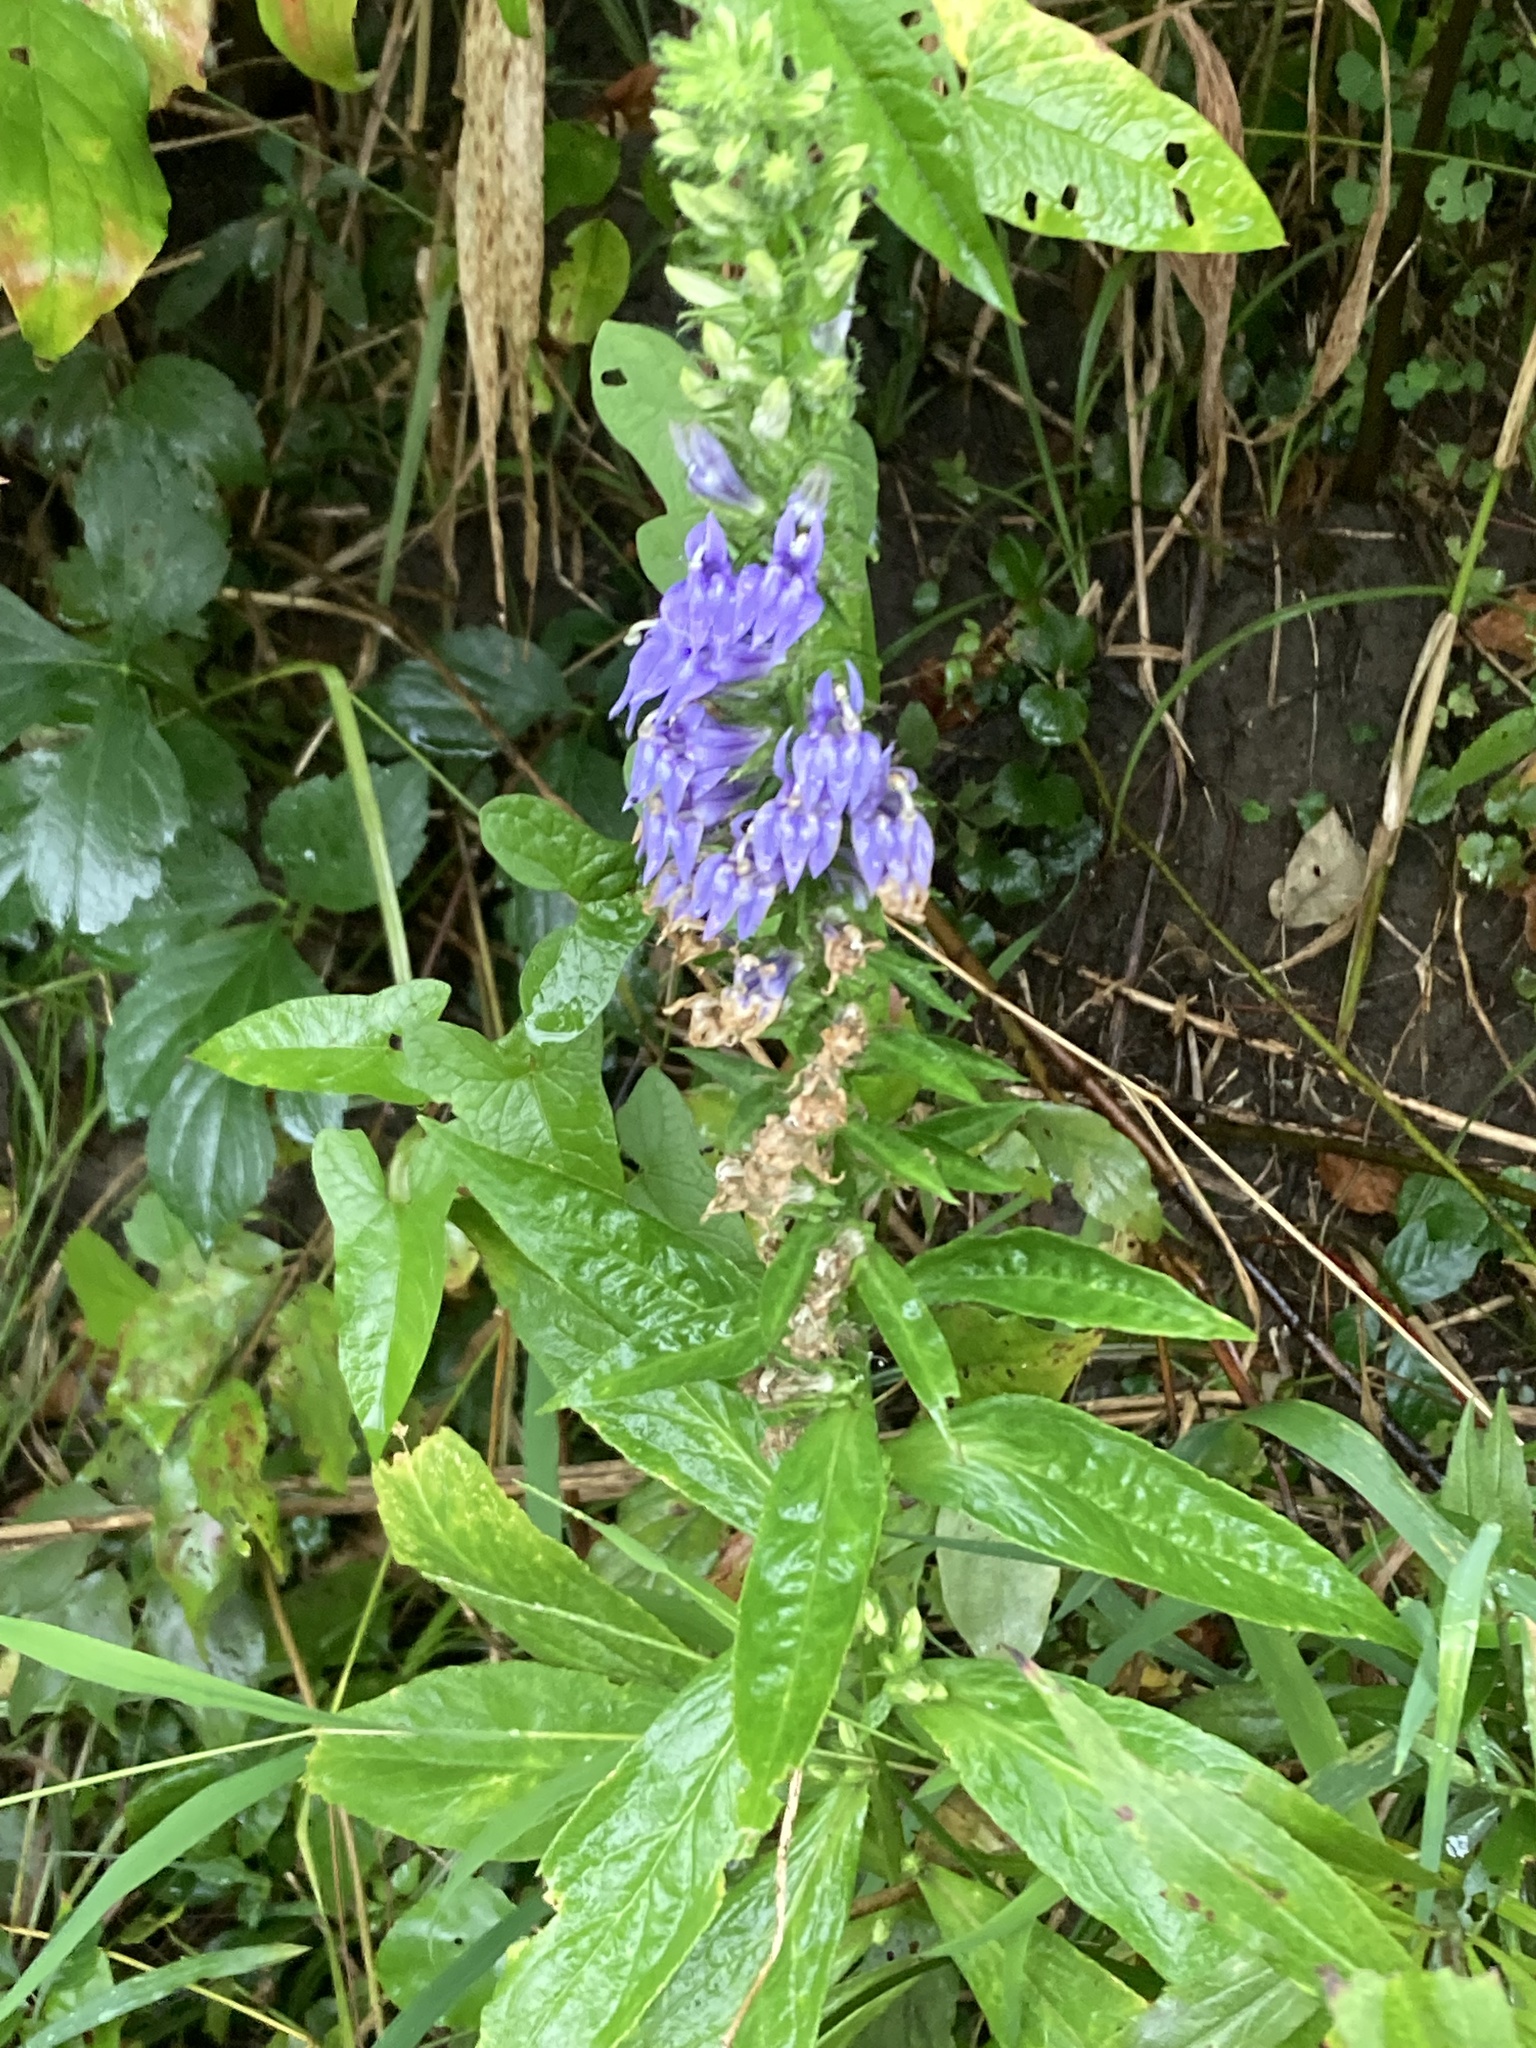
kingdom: Plantae
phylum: Tracheophyta
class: Magnoliopsida
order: Asterales
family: Campanulaceae
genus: Lobelia
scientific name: Lobelia siphilitica
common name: Great lobelia
